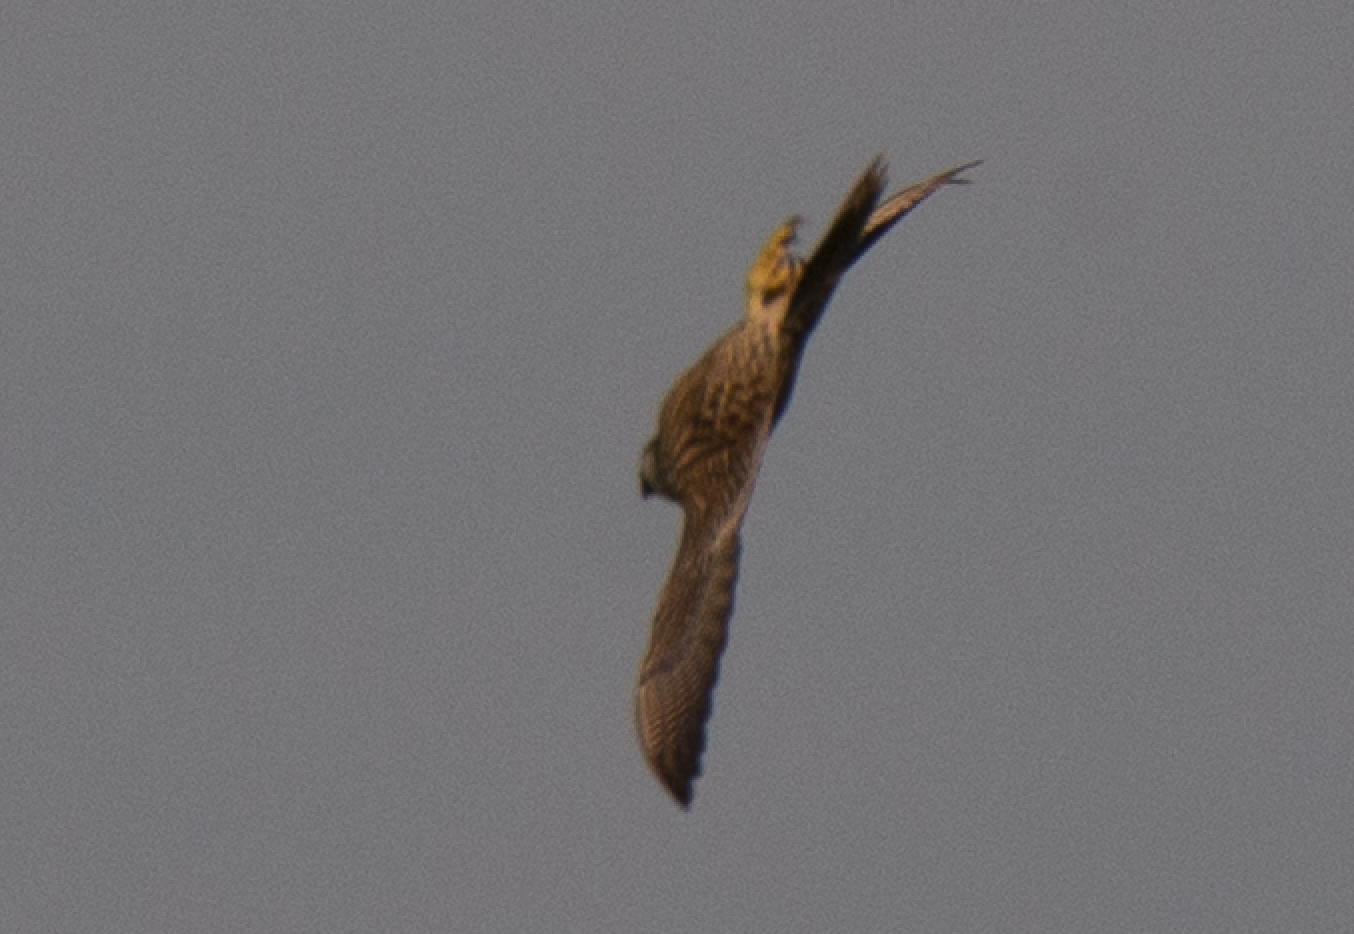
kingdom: Animalia
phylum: Chordata
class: Aves
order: Falconiformes
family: Falconidae
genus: Falco
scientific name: Falco peregrinus
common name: Peregrine falcon
